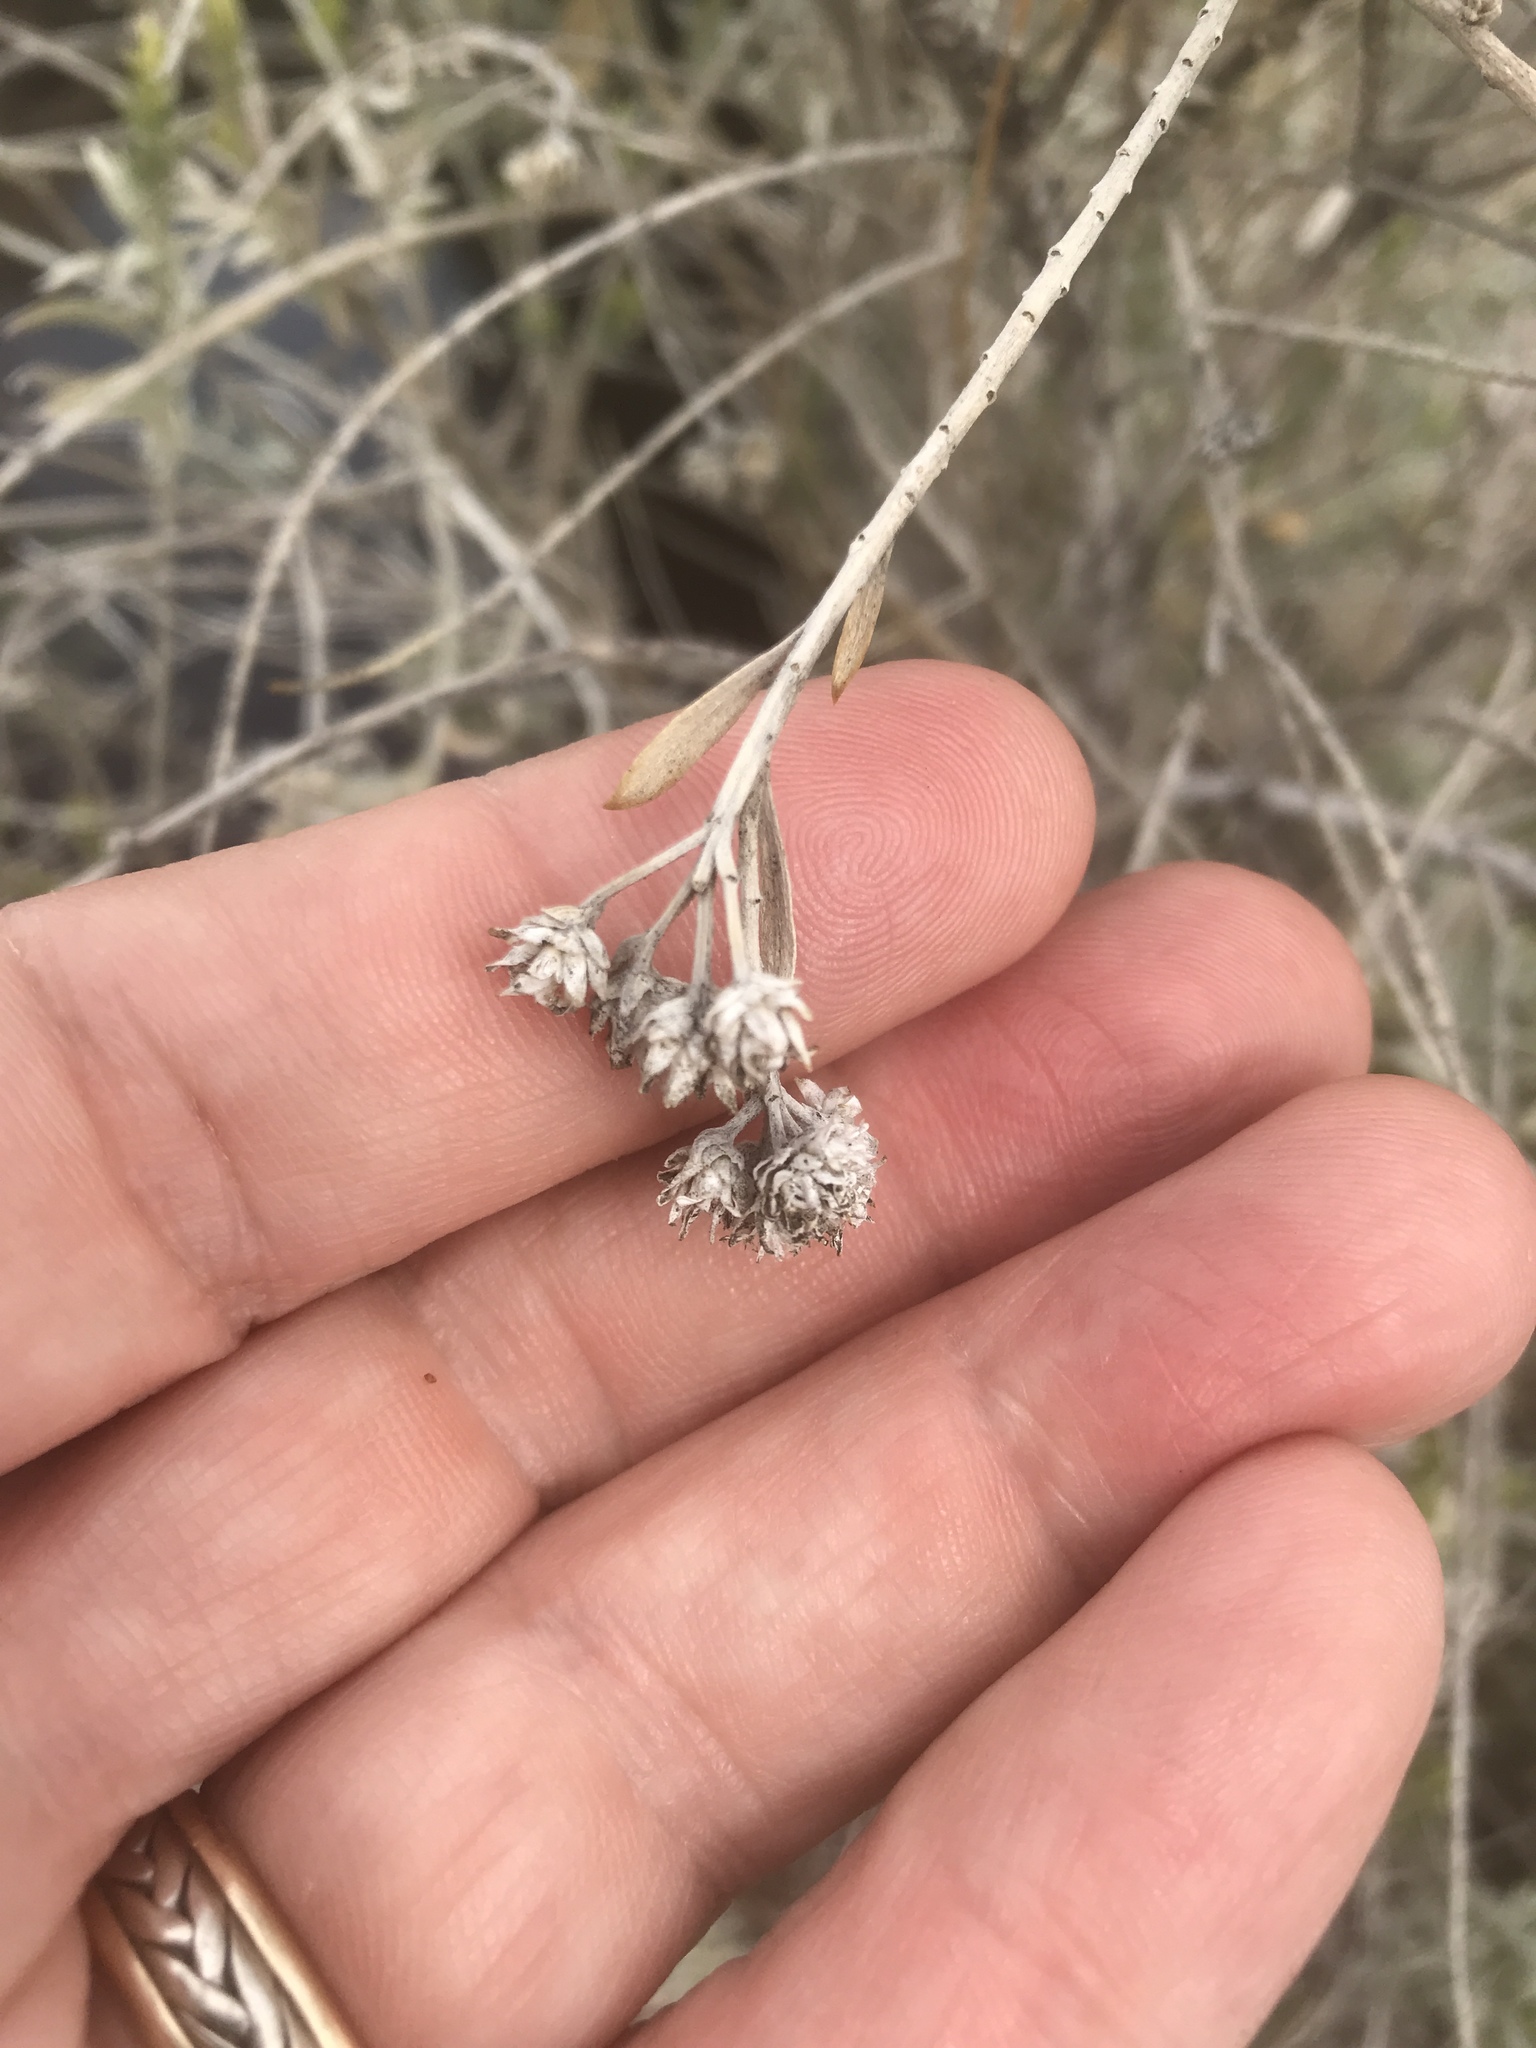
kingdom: Plantae
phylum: Tracheophyta
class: Magnoliopsida
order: Asterales
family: Asteraceae
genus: Pluchea
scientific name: Pluchea sericea
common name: Arrow-weed
